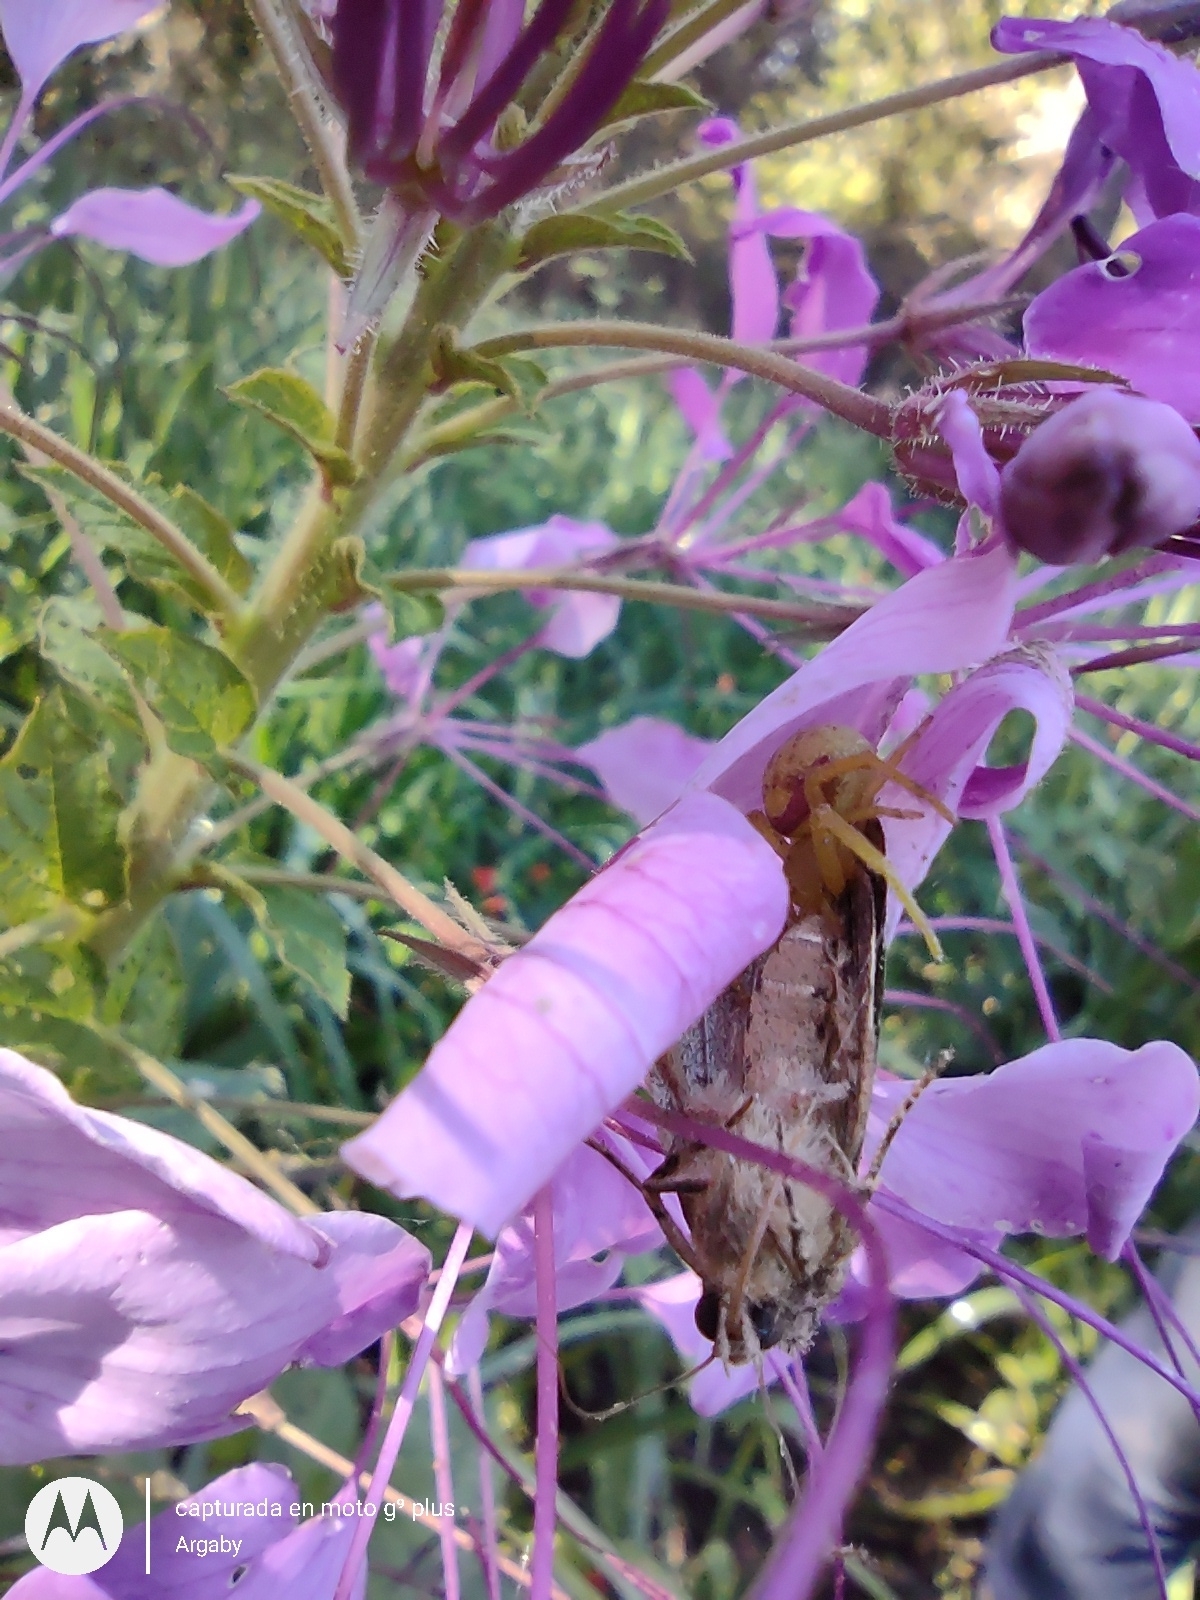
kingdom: Animalia
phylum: Arthropoda
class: Arachnida
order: Araneae
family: Thomisidae
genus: Misumenops
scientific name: Misumenops callinurus
